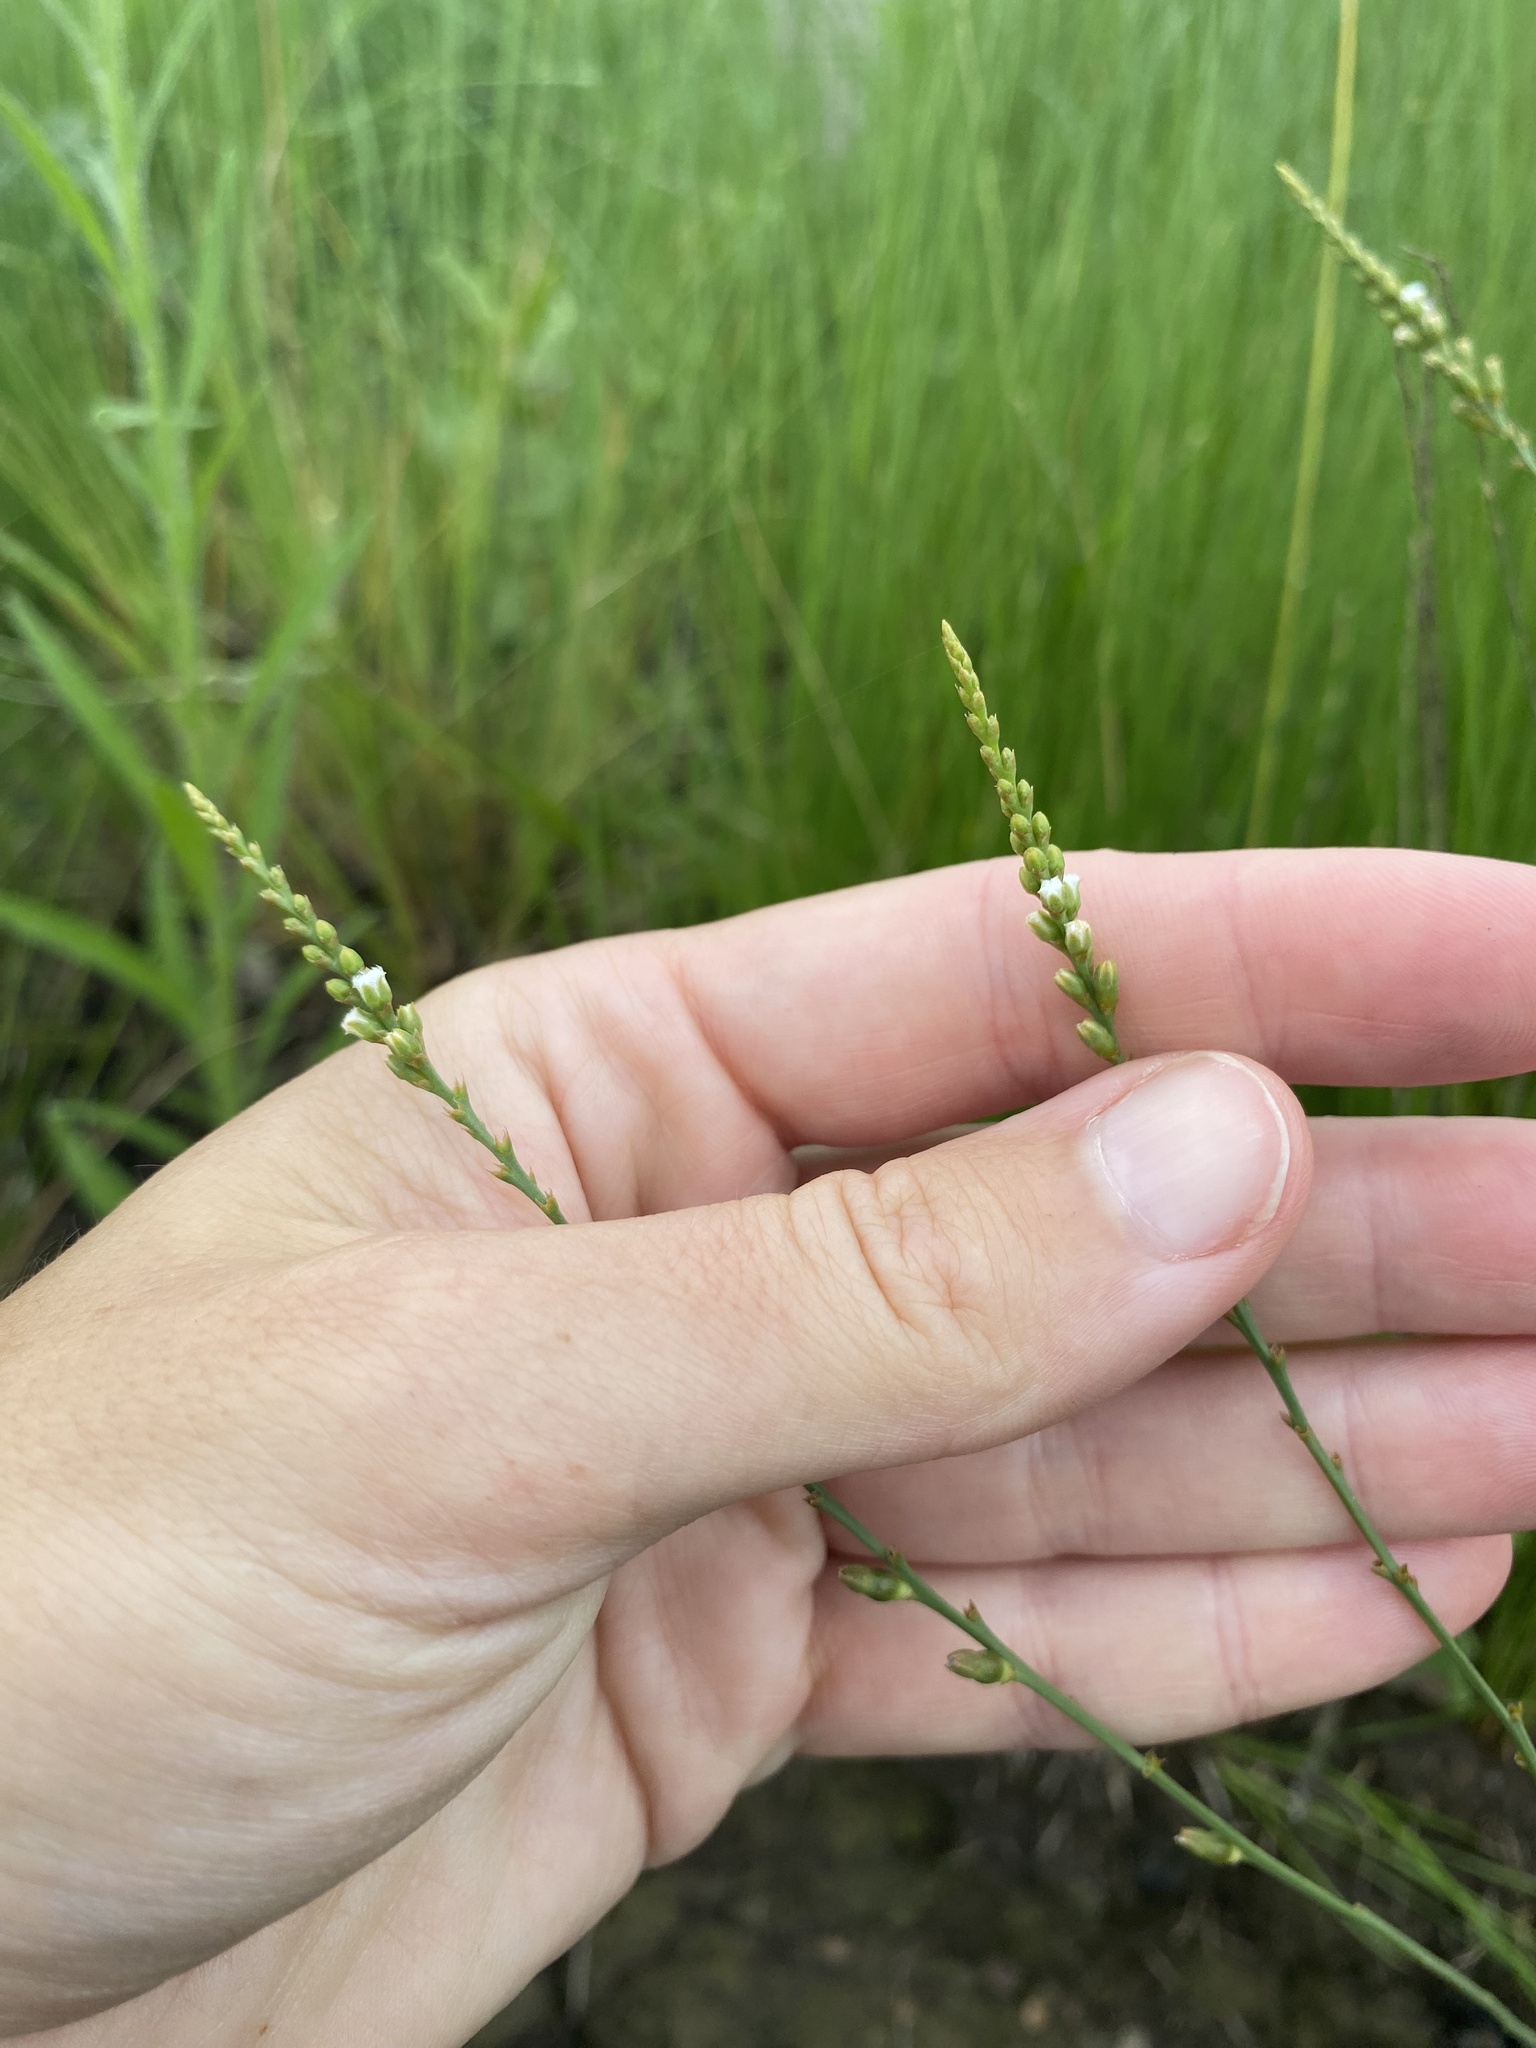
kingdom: Plantae
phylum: Tracheophyta
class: Magnoliopsida
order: Santalales
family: Thesiaceae
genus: Thesium
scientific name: Thesium natalense
